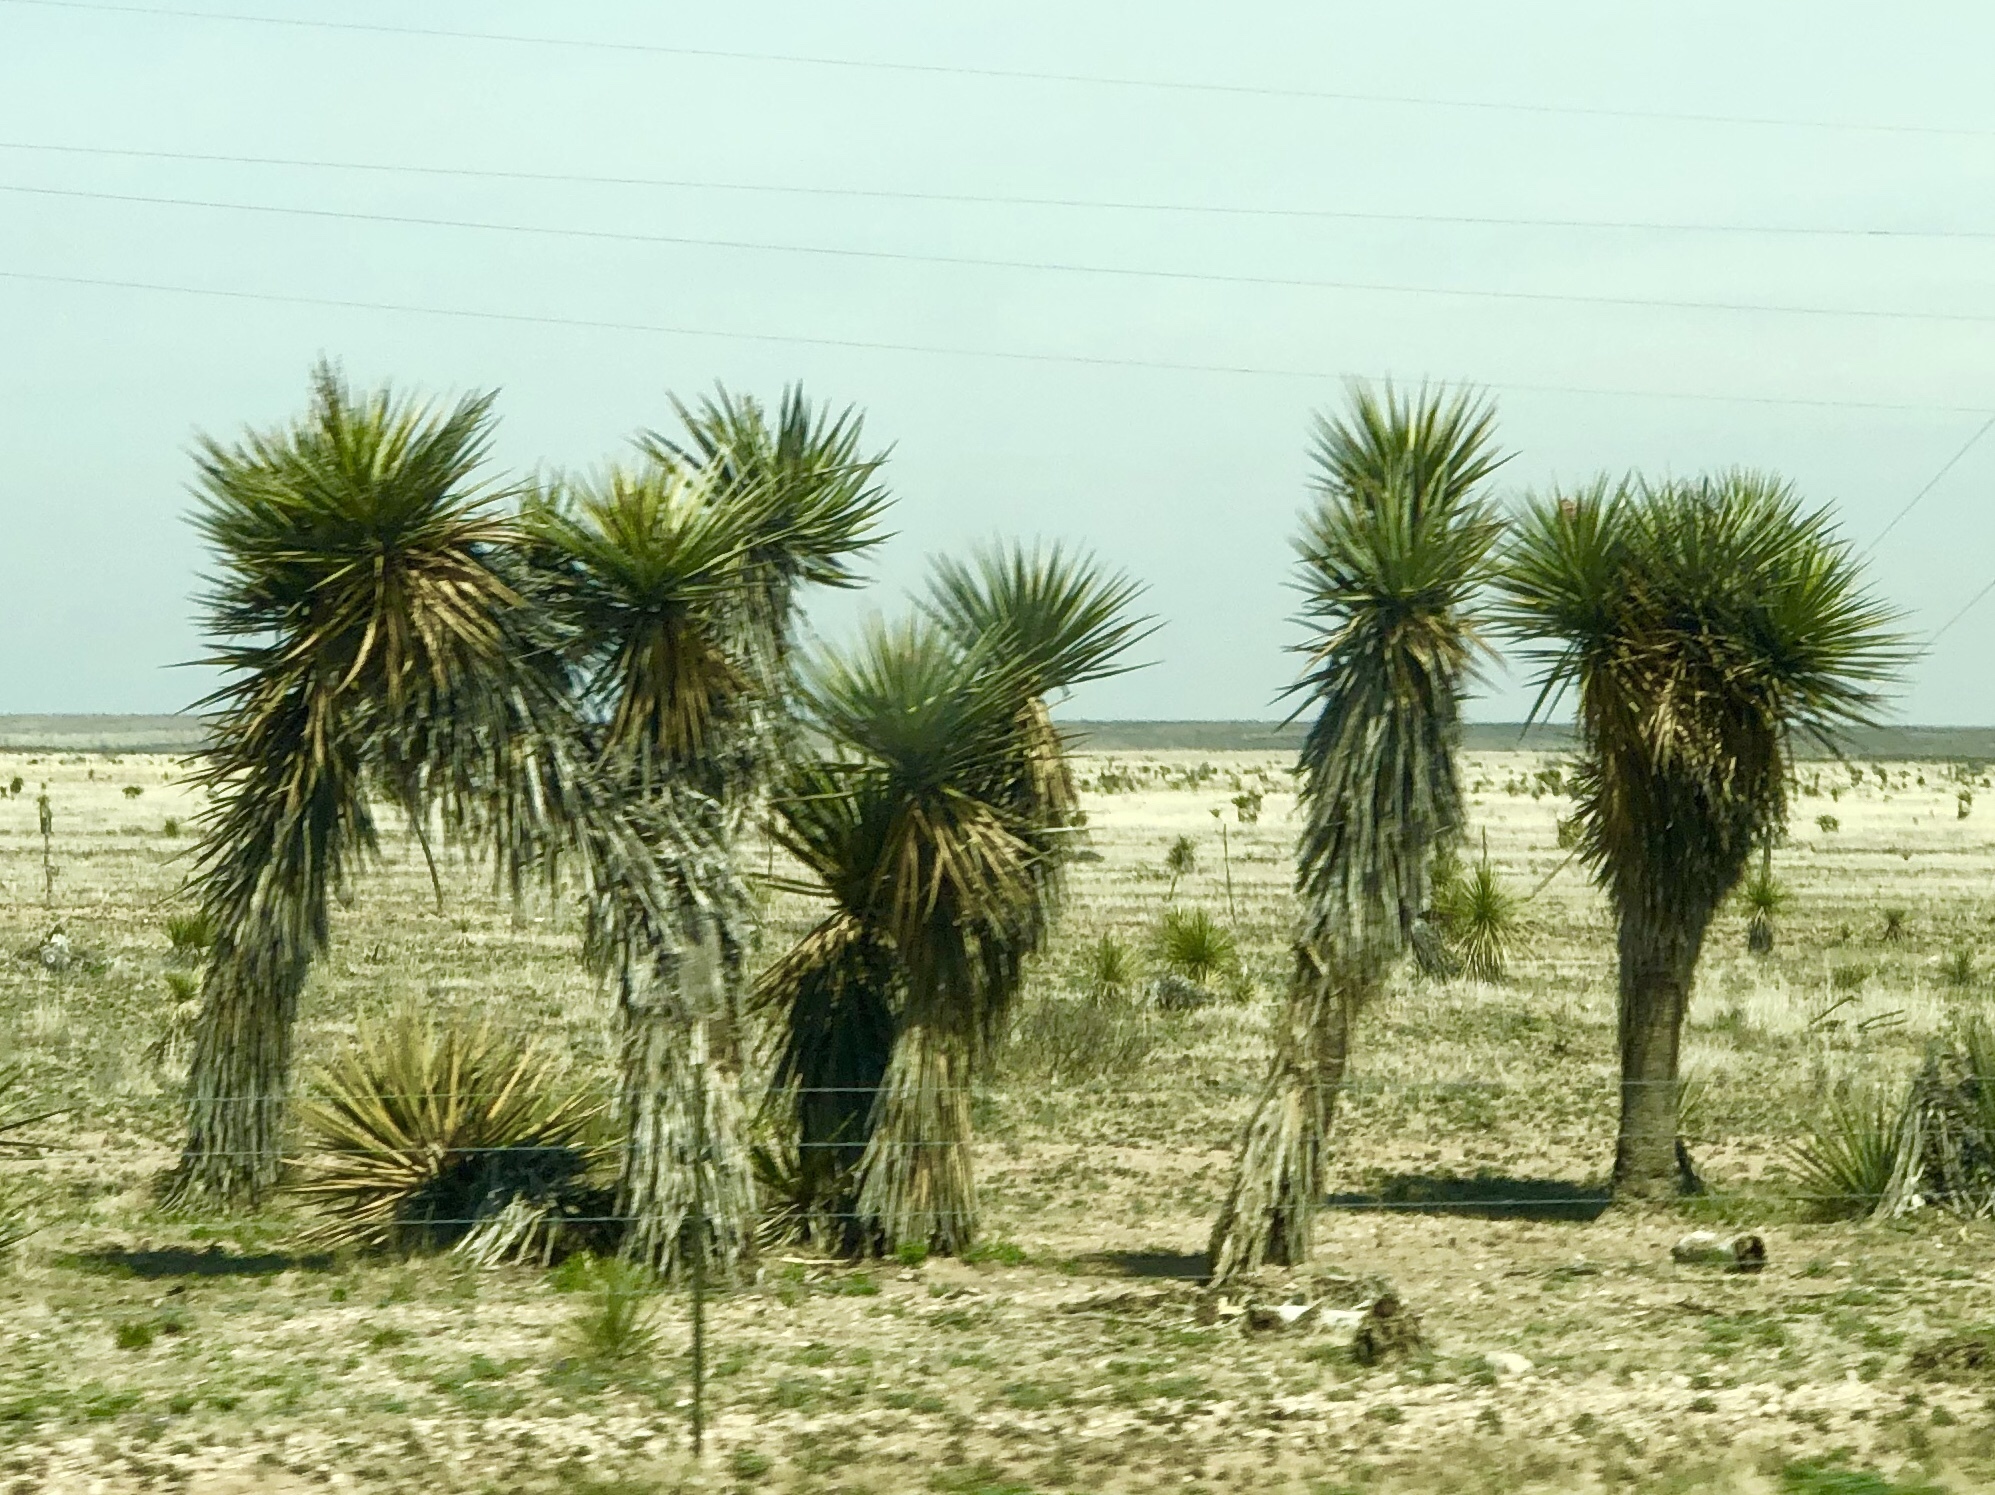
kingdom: Plantae
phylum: Tracheophyta
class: Liliopsida
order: Asparagales
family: Asparagaceae
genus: Yucca
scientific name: Yucca treculiana
